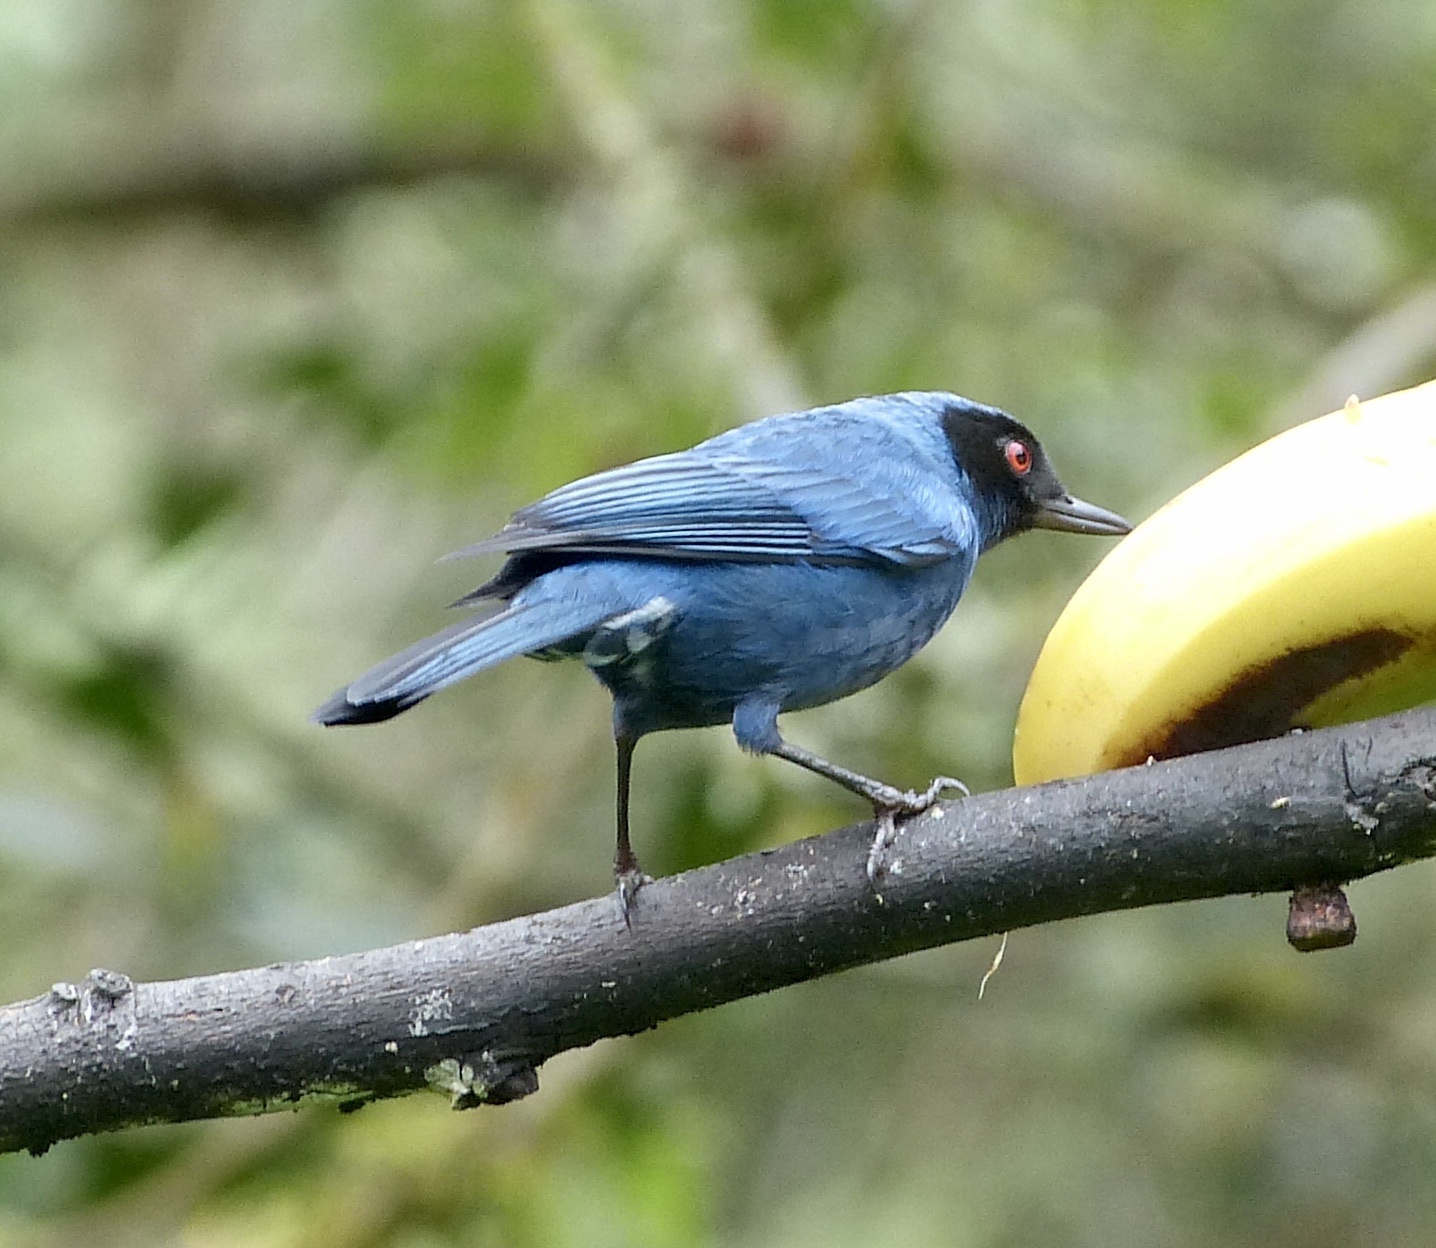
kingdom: Animalia
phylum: Chordata
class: Aves
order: Passeriformes
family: Thraupidae
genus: Diglossa
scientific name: Diglossa cyanea
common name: Masked flowerpiercer
